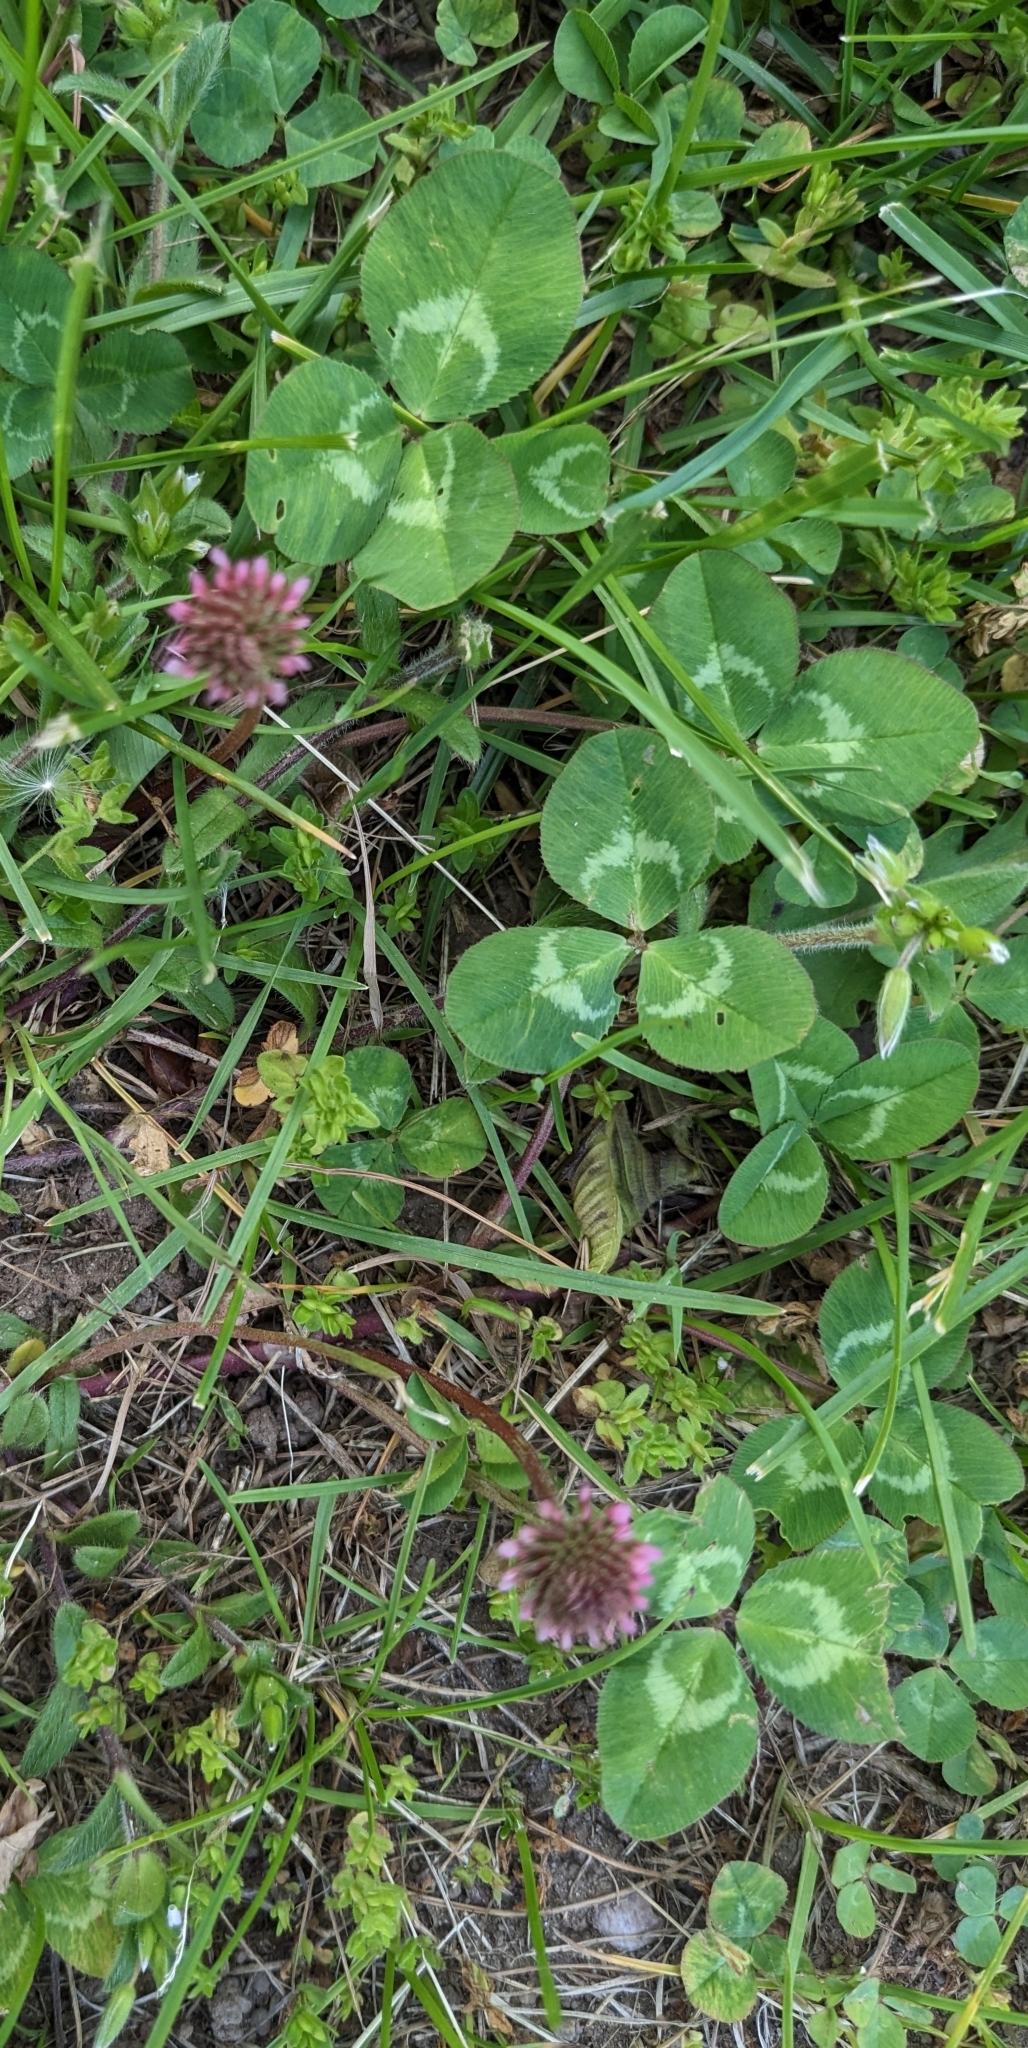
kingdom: Plantae
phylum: Tracheophyta
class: Magnoliopsida
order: Fabales
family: Fabaceae
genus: Trifolium
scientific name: Trifolium repens
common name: White clover
